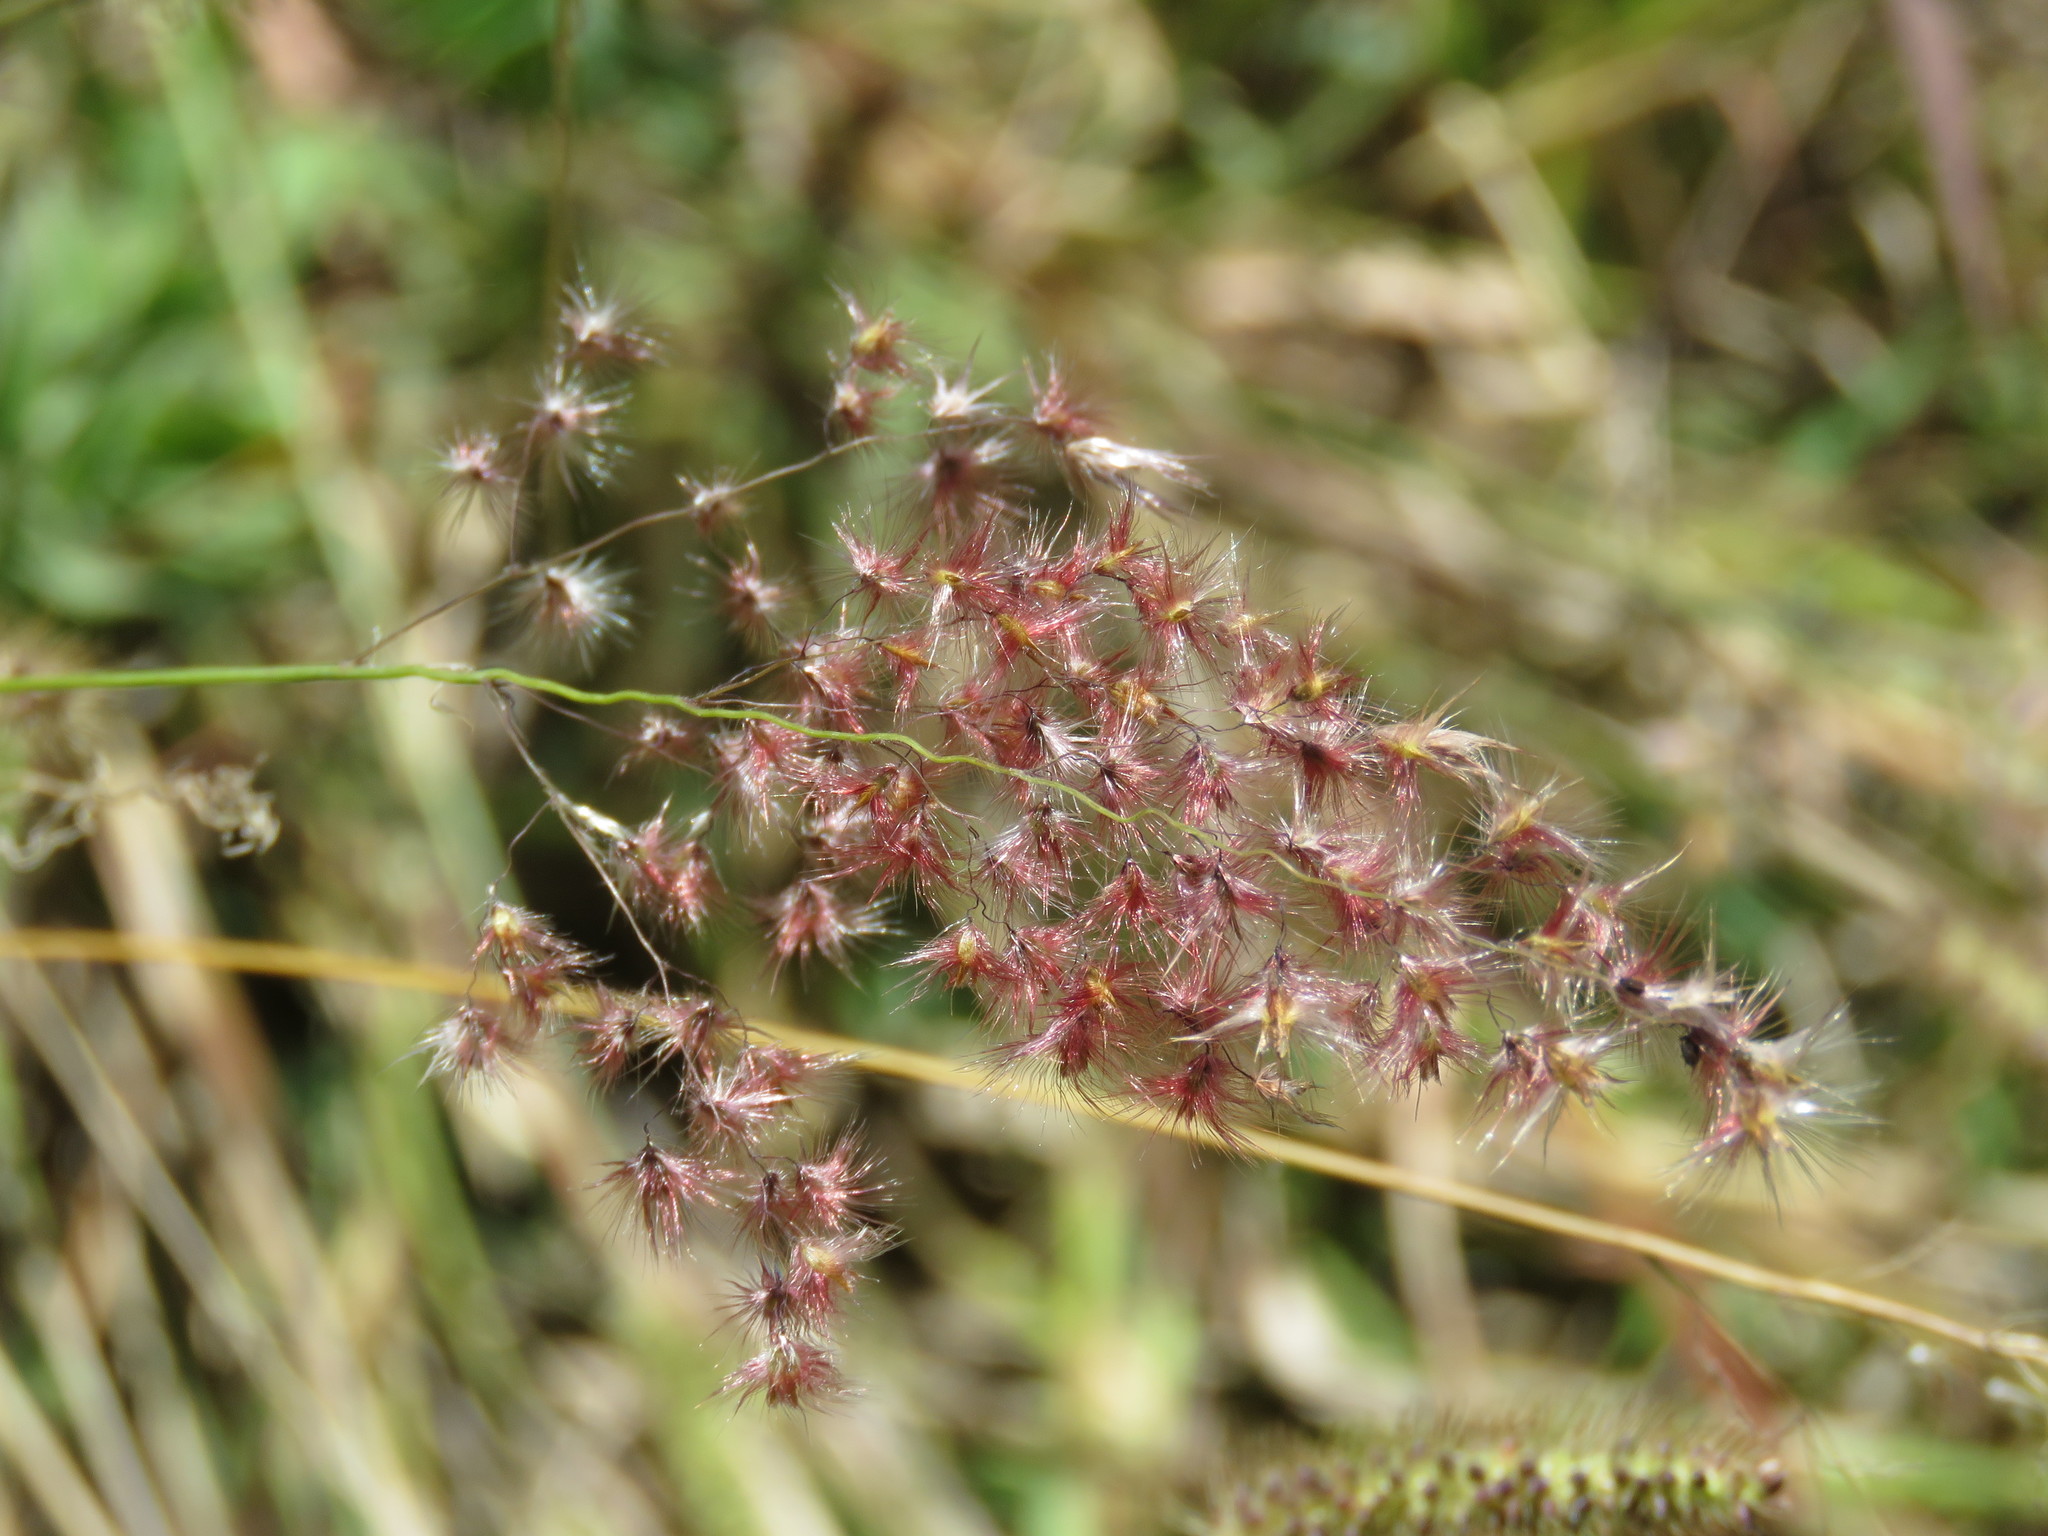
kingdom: Plantae
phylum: Tracheophyta
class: Liliopsida
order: Poales
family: Poaceae
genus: Melinis
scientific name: Melinis repens
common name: Rose natal grass
